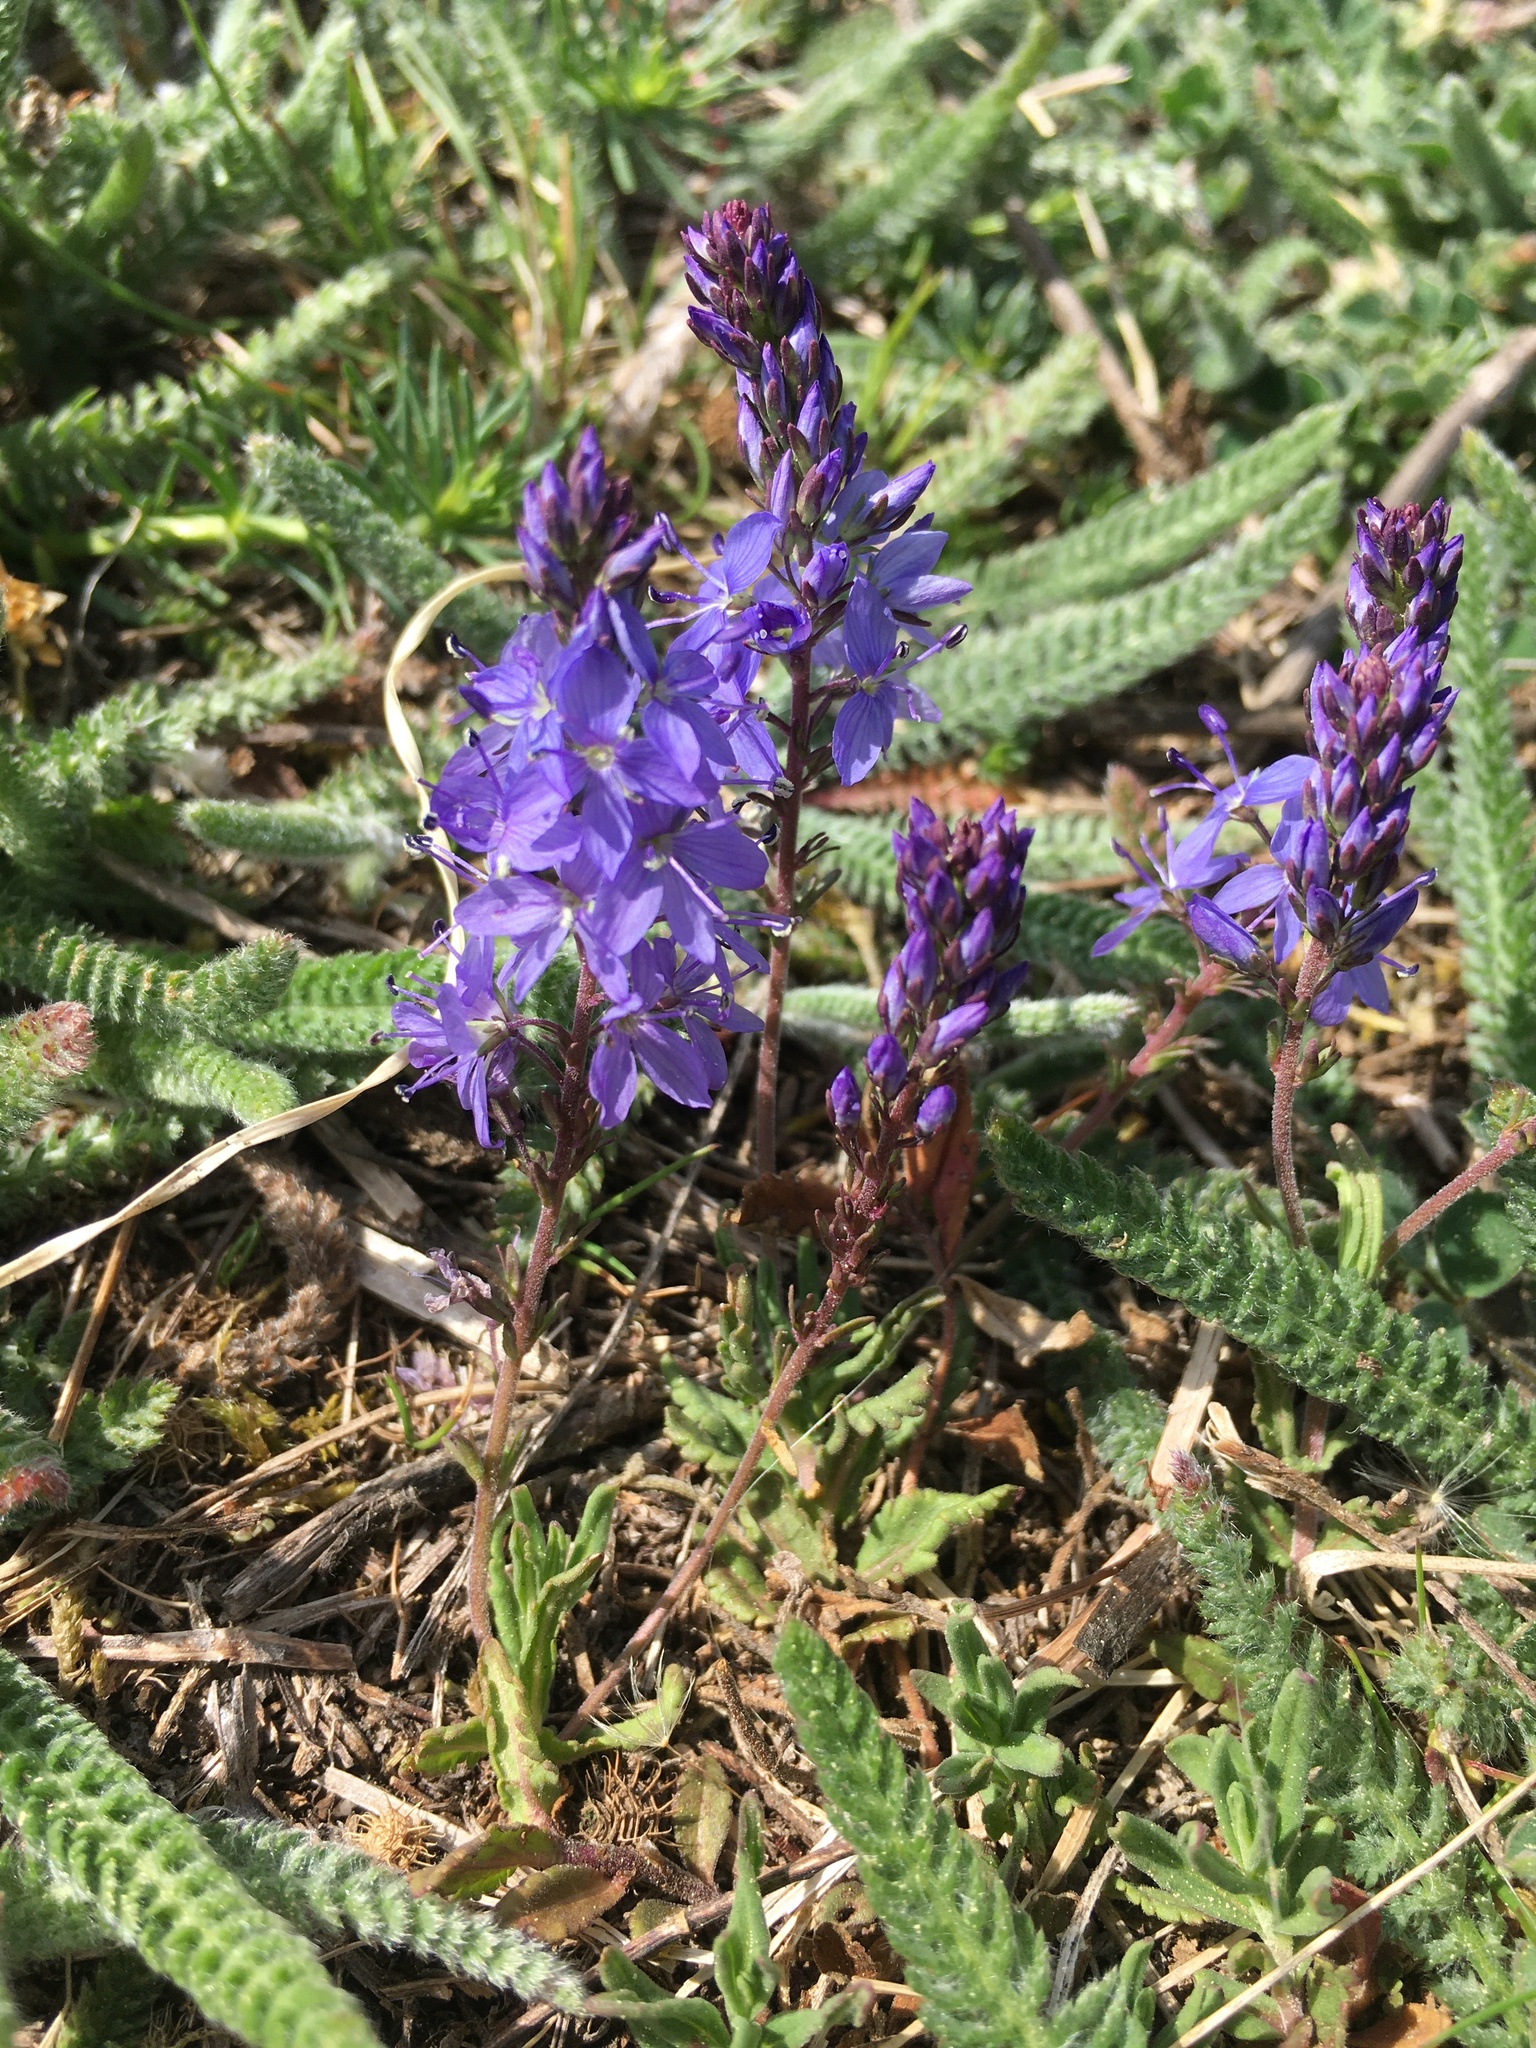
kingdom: Plantae
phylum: Tracheophyta
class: Magnoliopsida
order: Lamiales
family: Plantaginaceae
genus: Veronica
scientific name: Veronica austriaca
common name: Large speedwell
